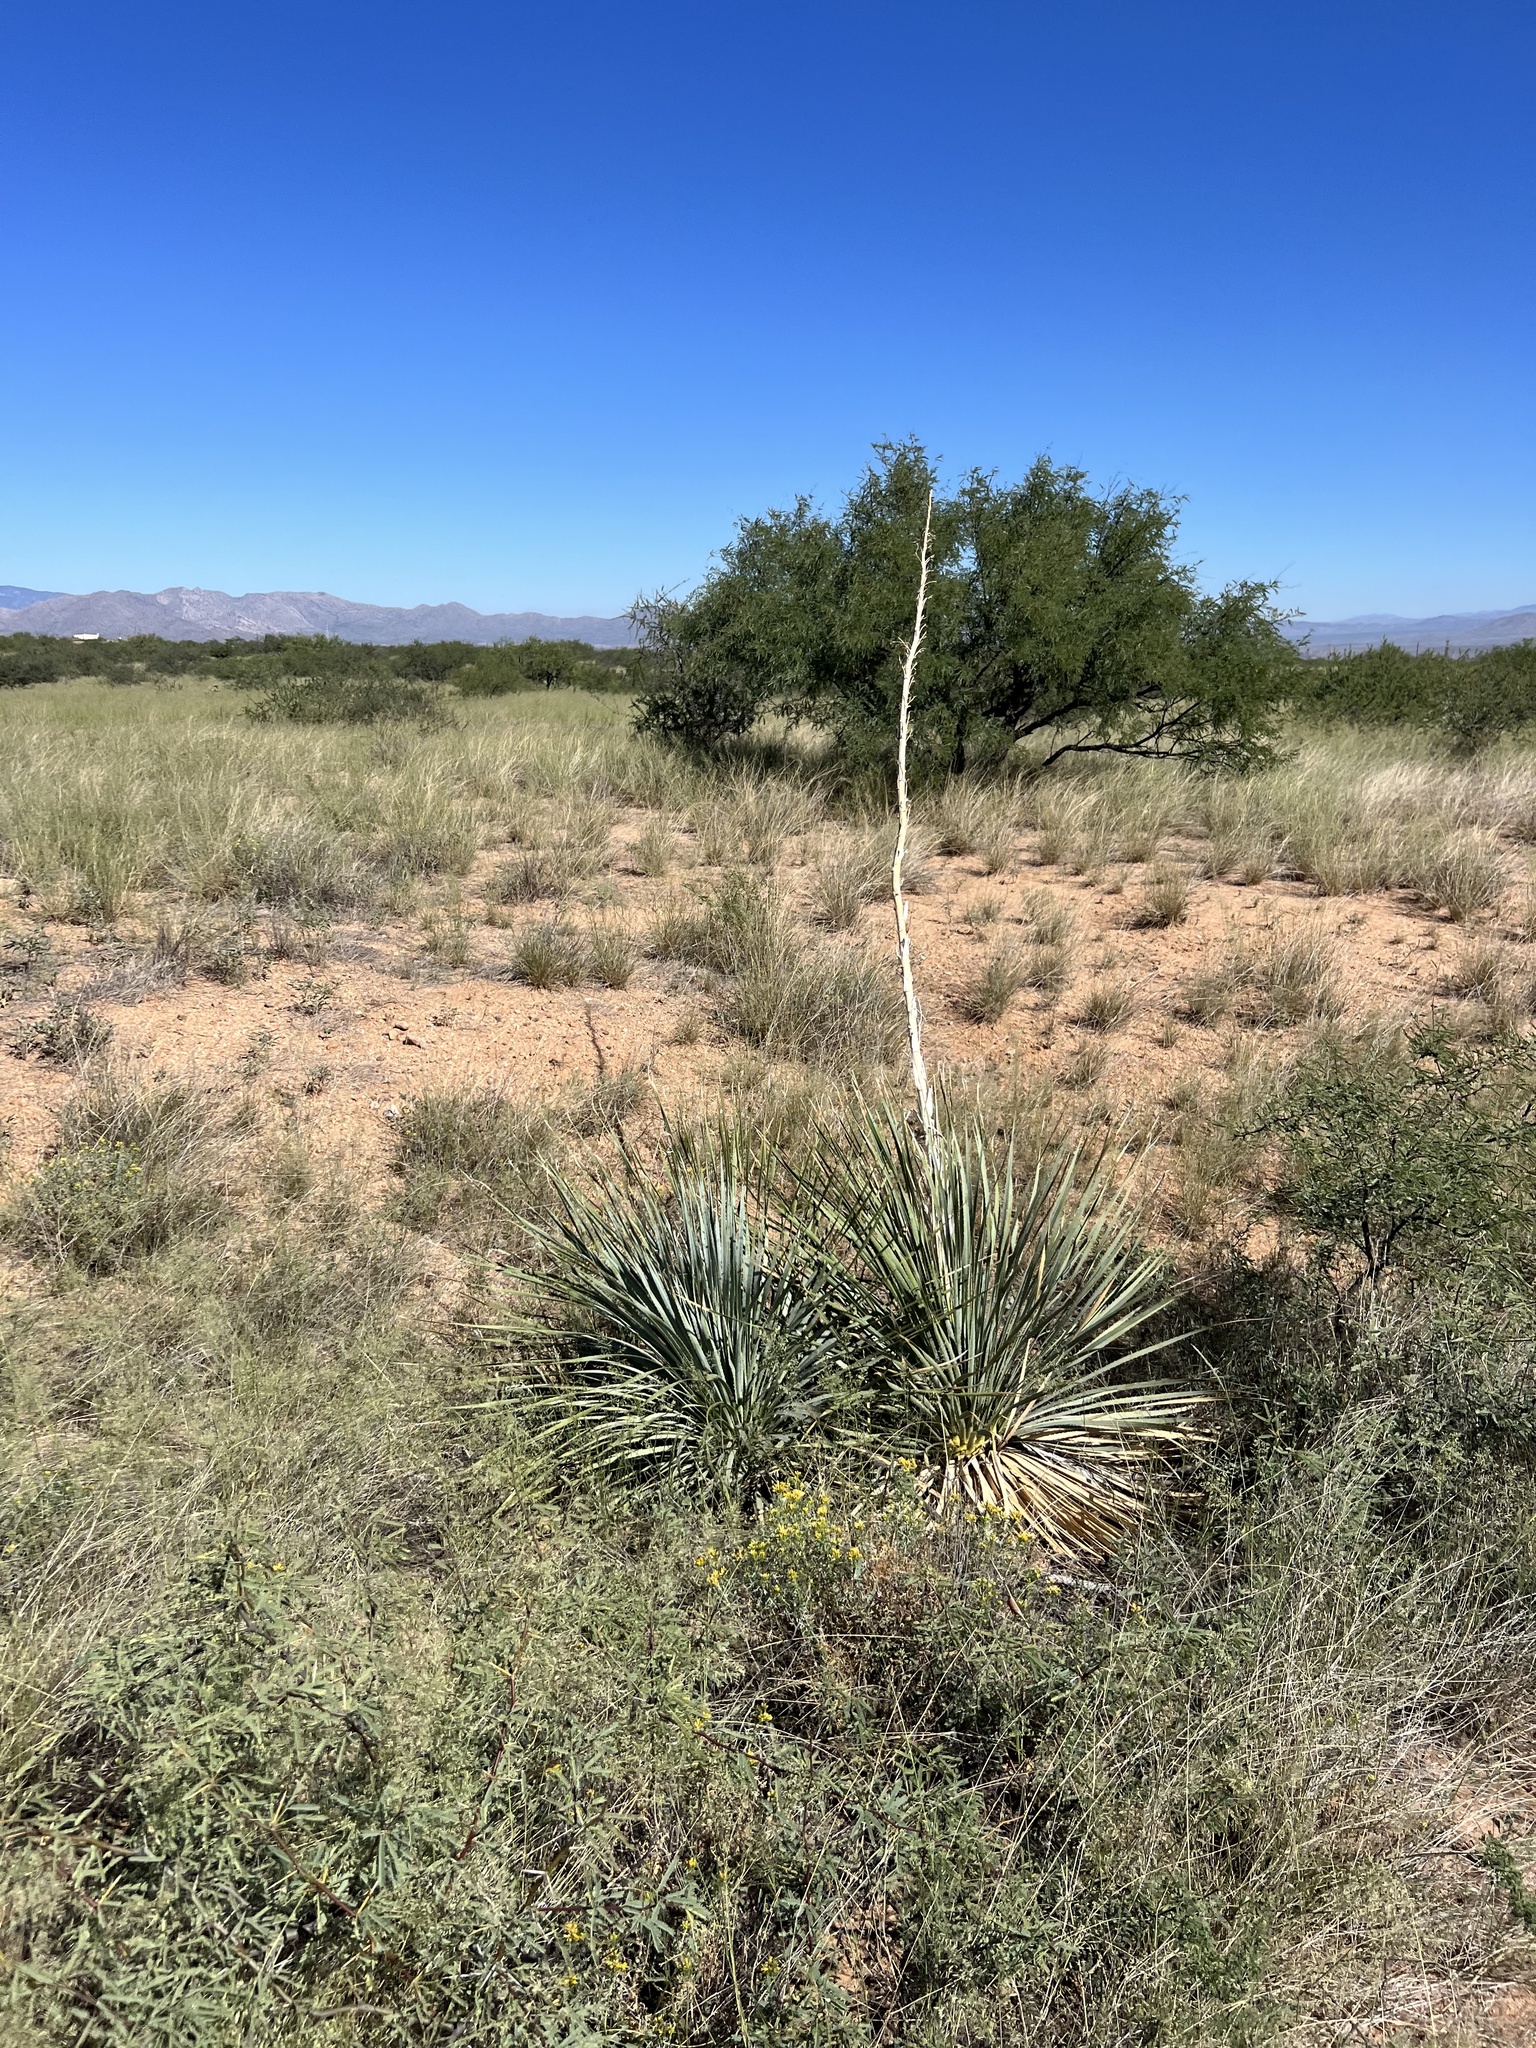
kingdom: Plantae
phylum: Tracheophyta
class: Liliopsida
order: Asparagales
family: Asparagaceae
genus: Yucca
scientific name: Yucca elata
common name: Palmella
